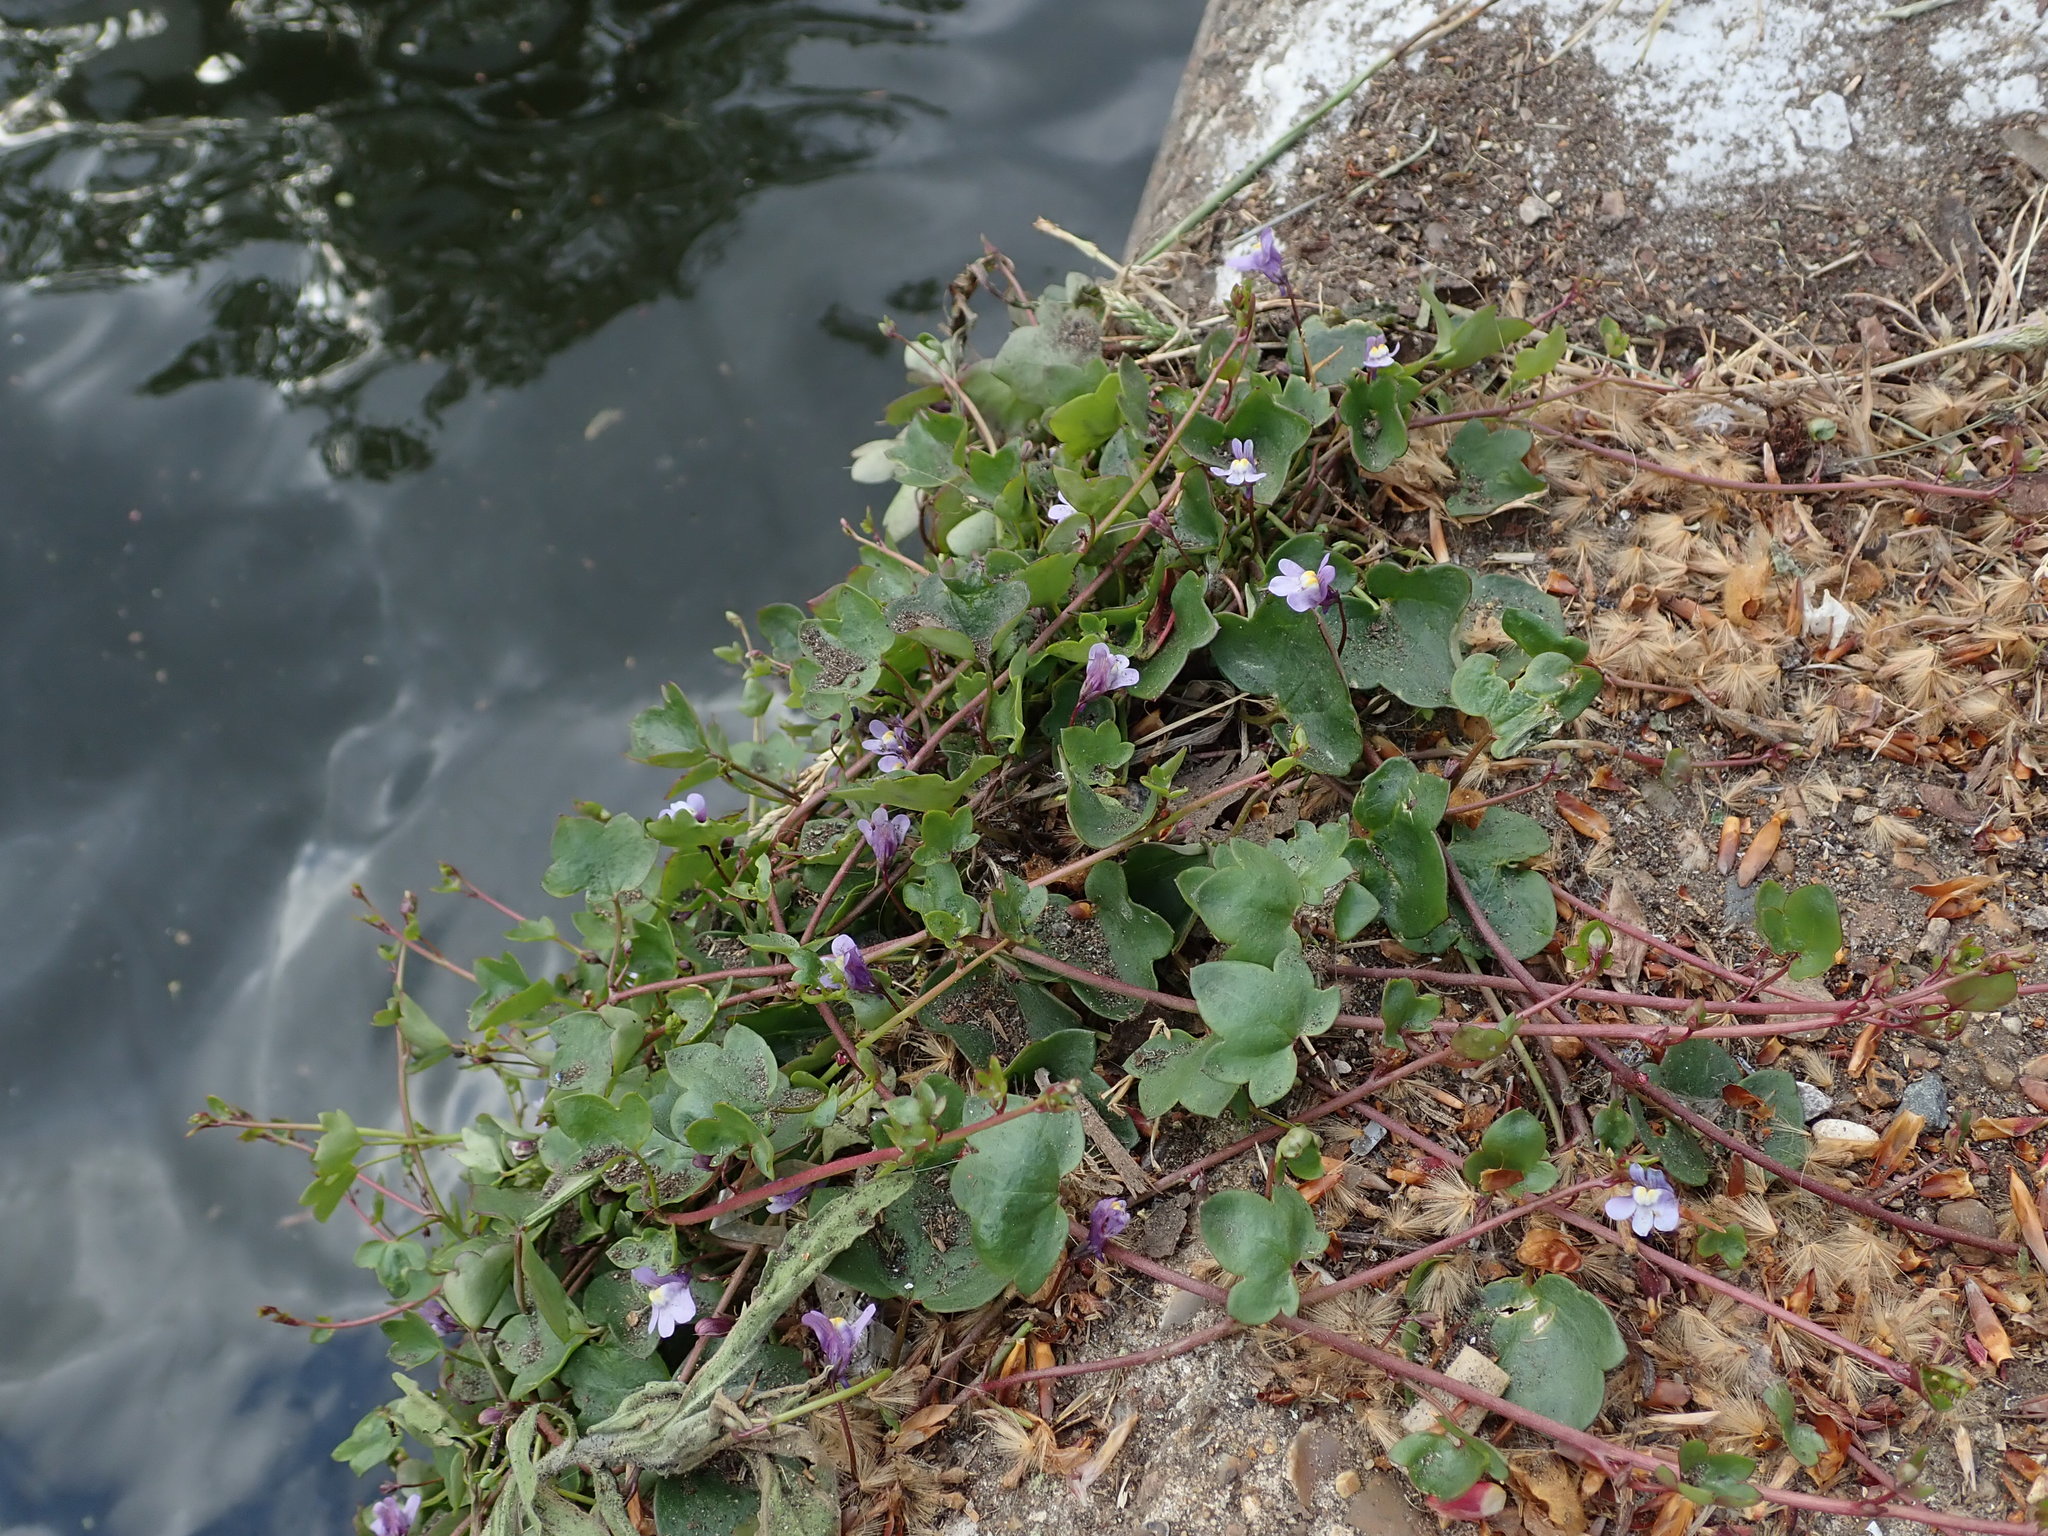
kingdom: Plantae
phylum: Tracheophyta
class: Magnoliopsida
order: Lamiales
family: Plantaginaceae
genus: Cymbalaria
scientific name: Cymbalaria muralis
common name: Ivy-leaved toadflax
